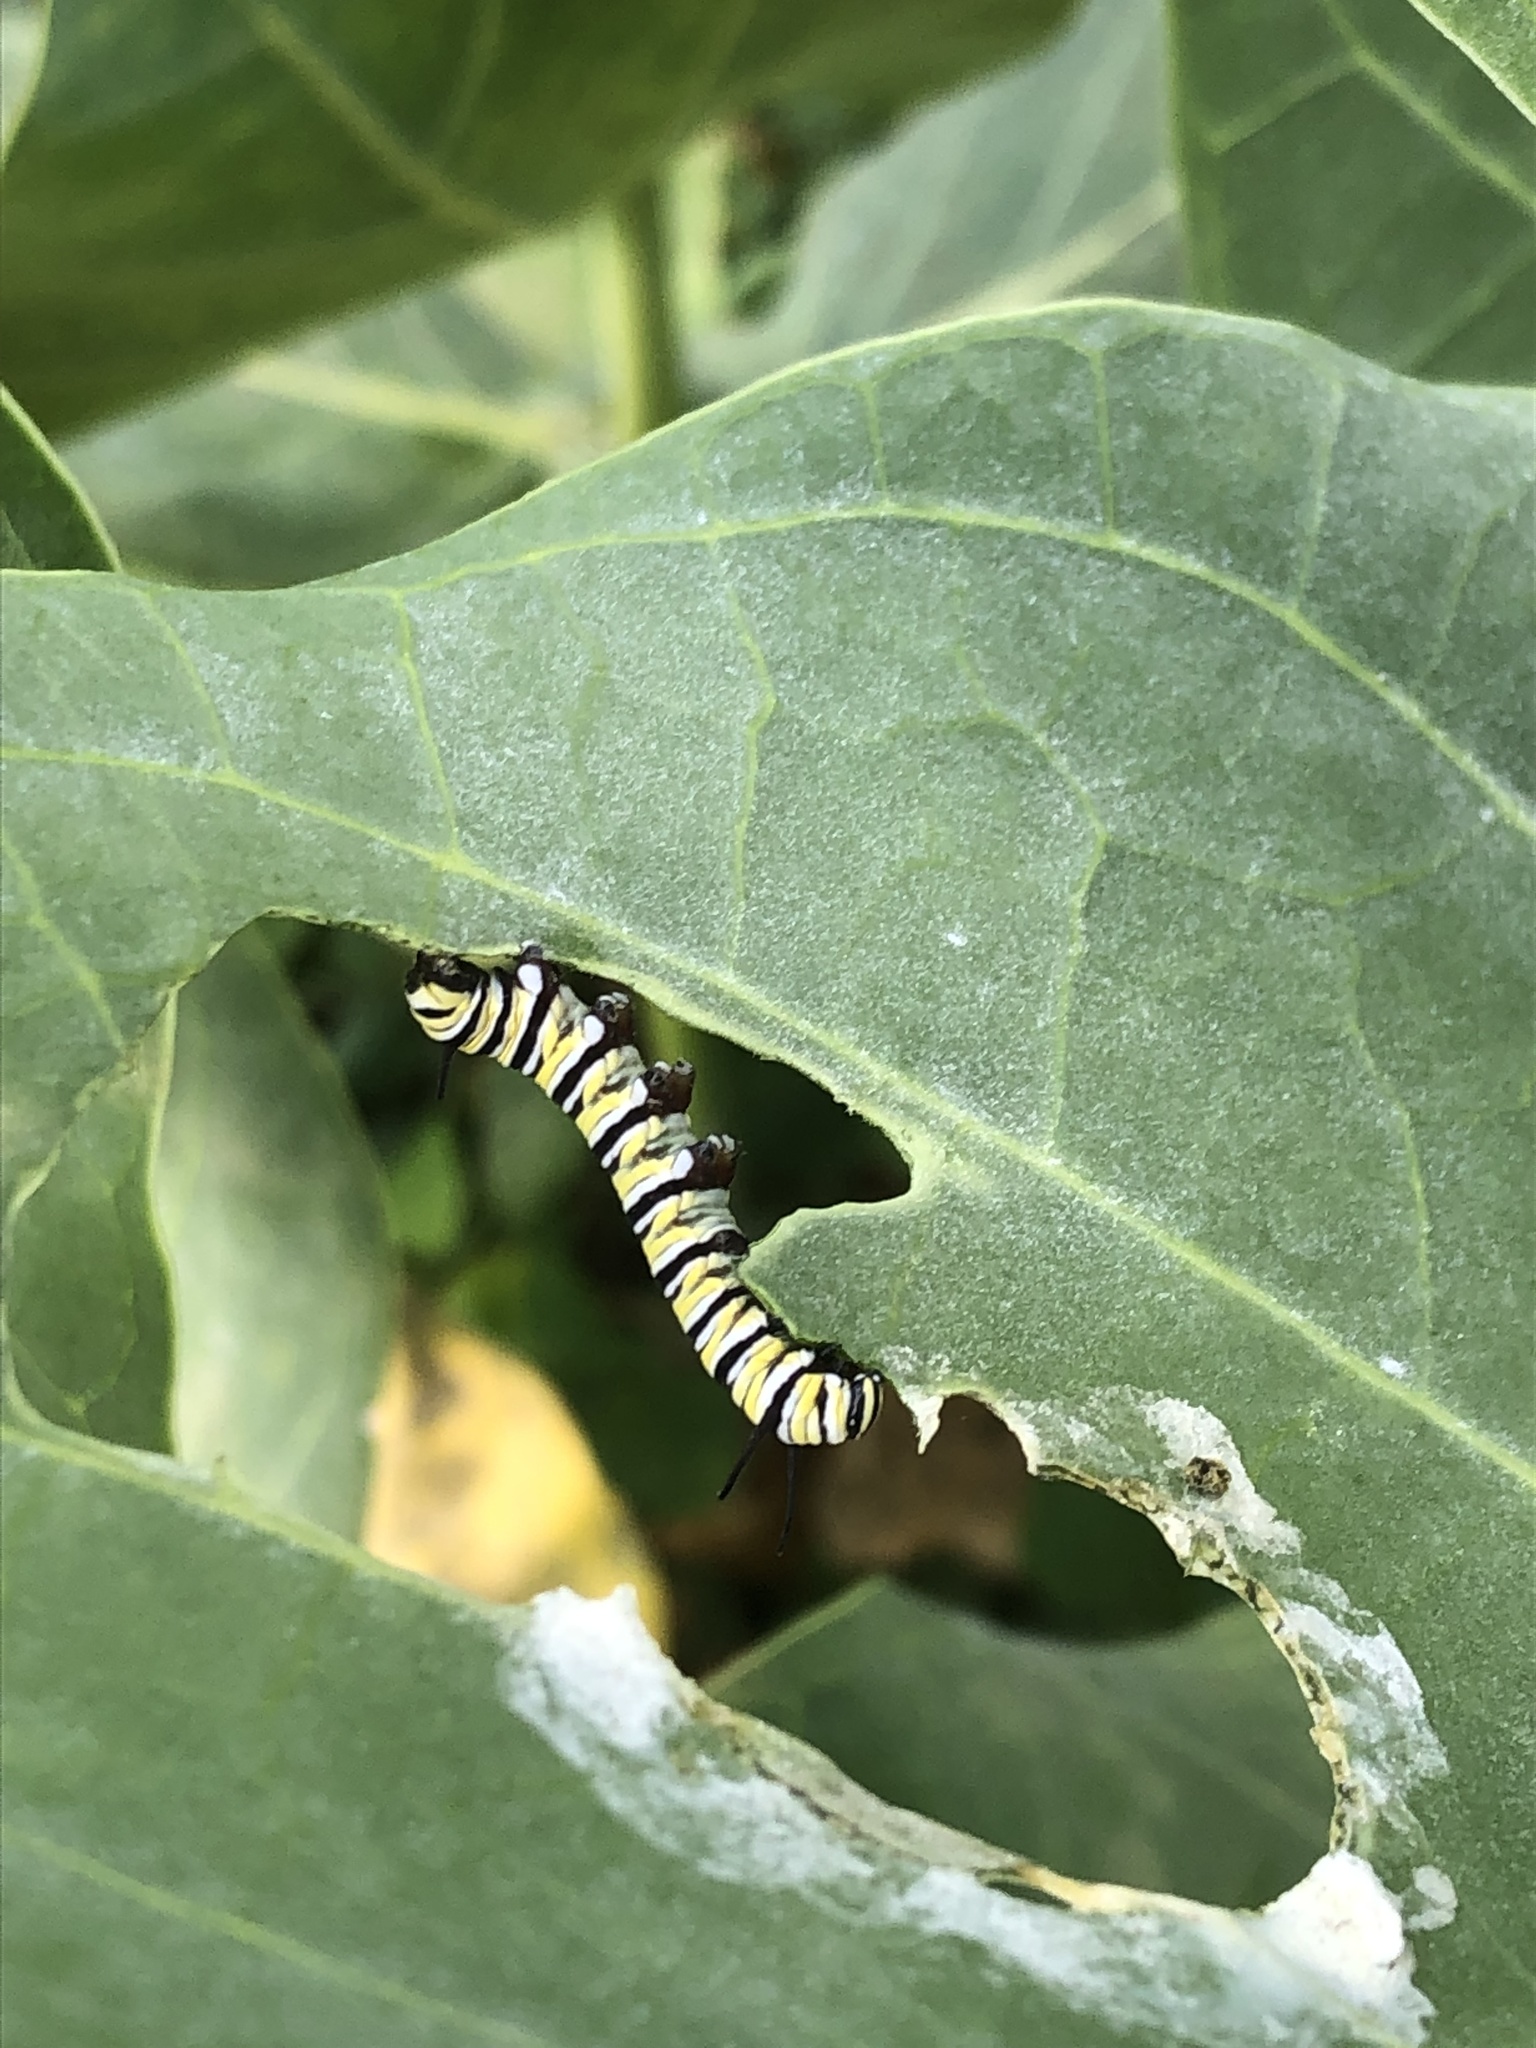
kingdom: Animalia
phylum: Arthropoda
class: Insecta
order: Lepidoptera
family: Nymphalidae
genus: Danaus
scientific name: Danaus plexippus
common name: Monarch
